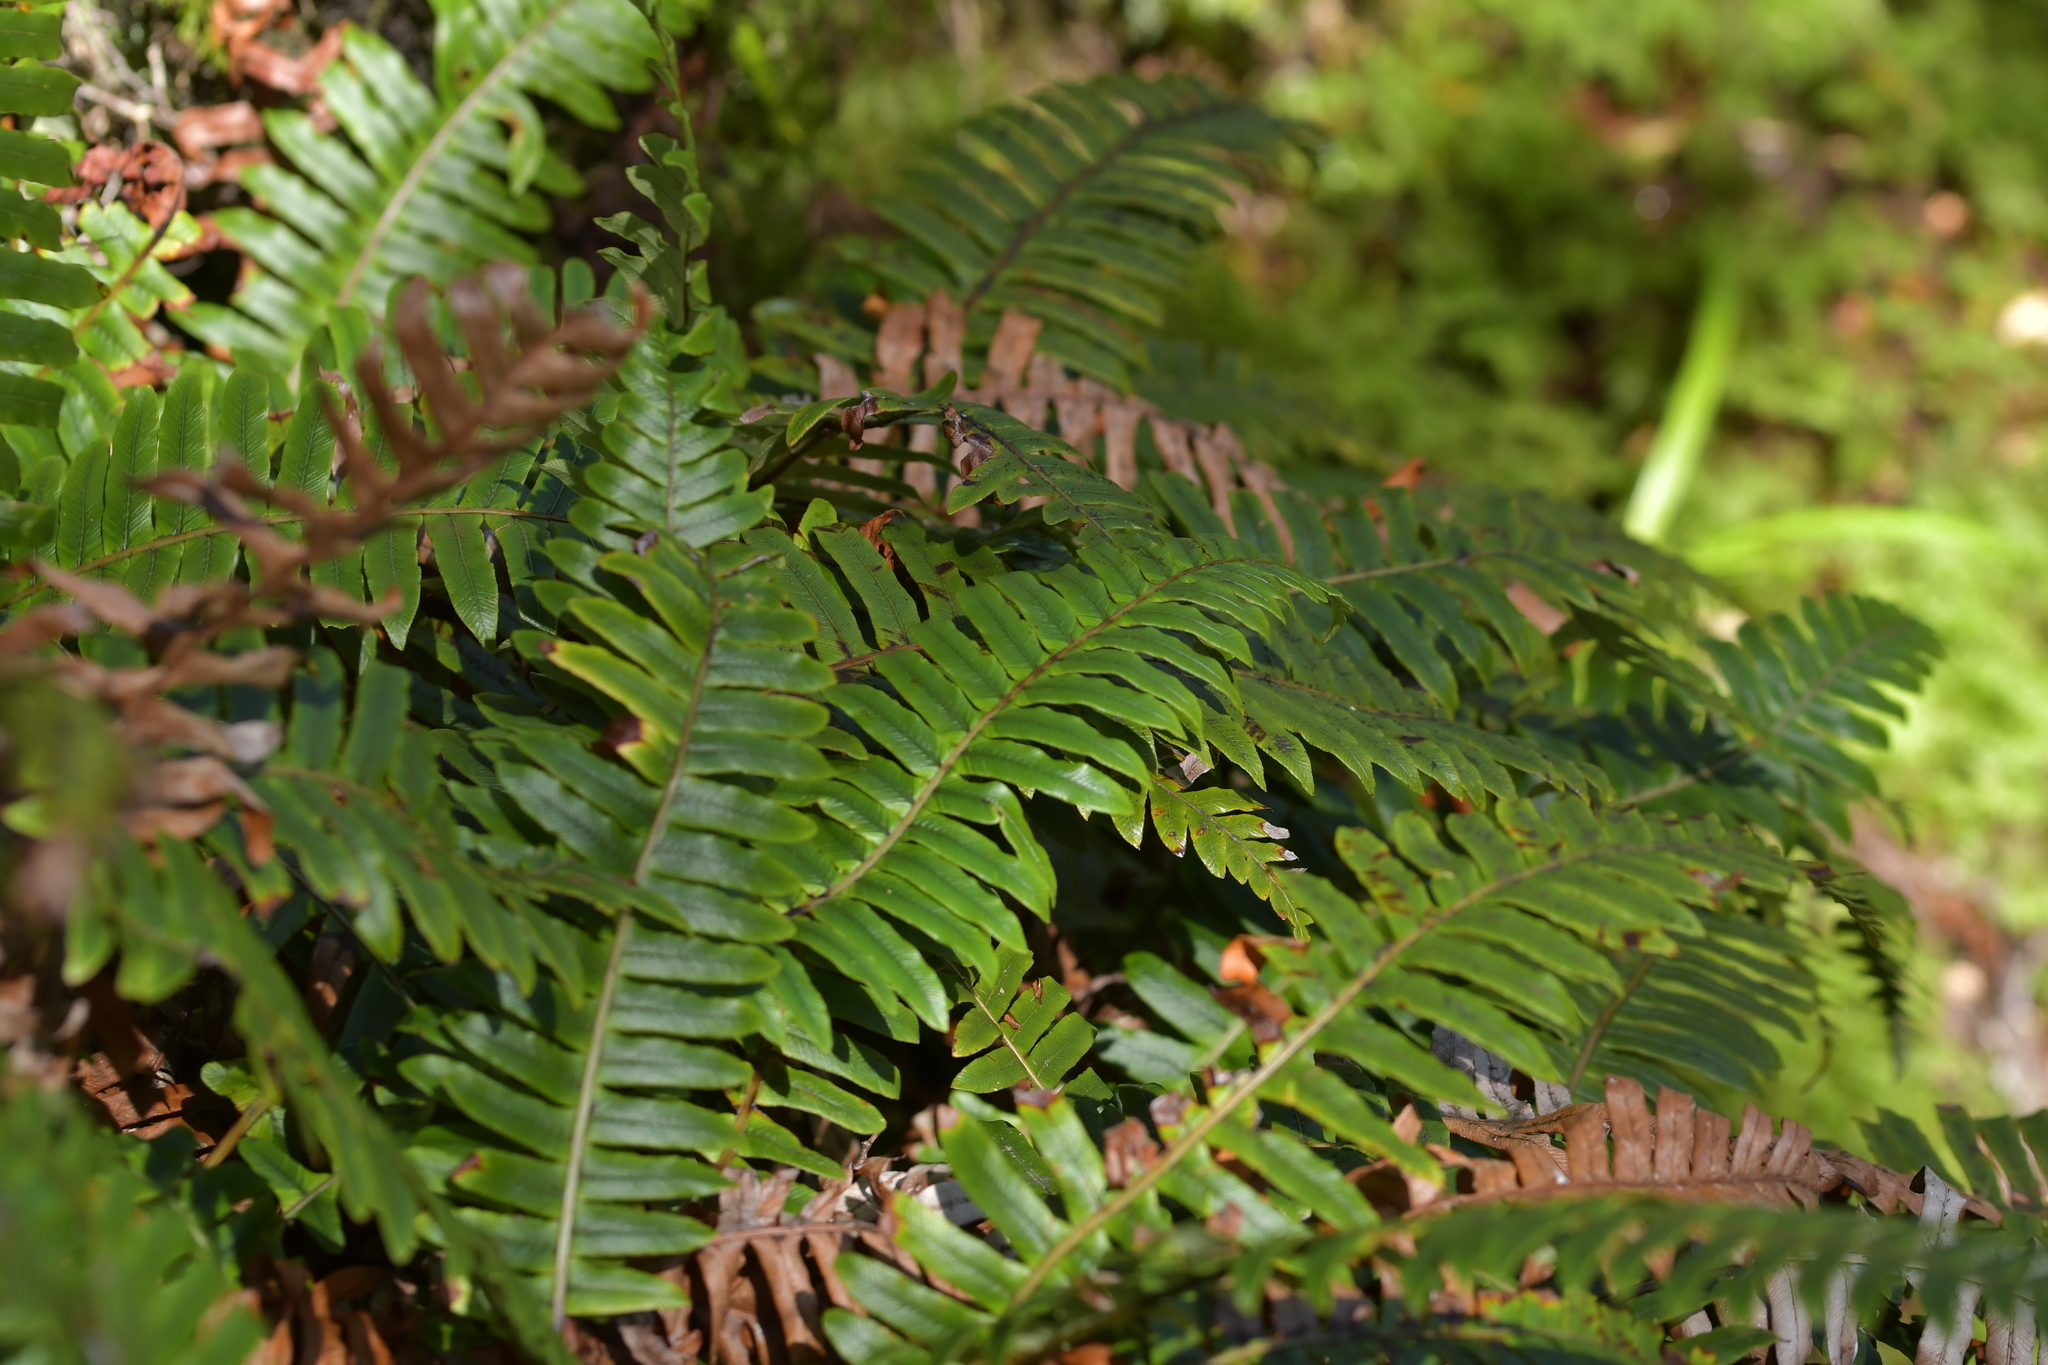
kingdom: Plantae
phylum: Tracheophyta
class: Polypodiopsida
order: Polypodiales
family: Blechnaceae
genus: Lomaria
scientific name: Lomaria discolor
